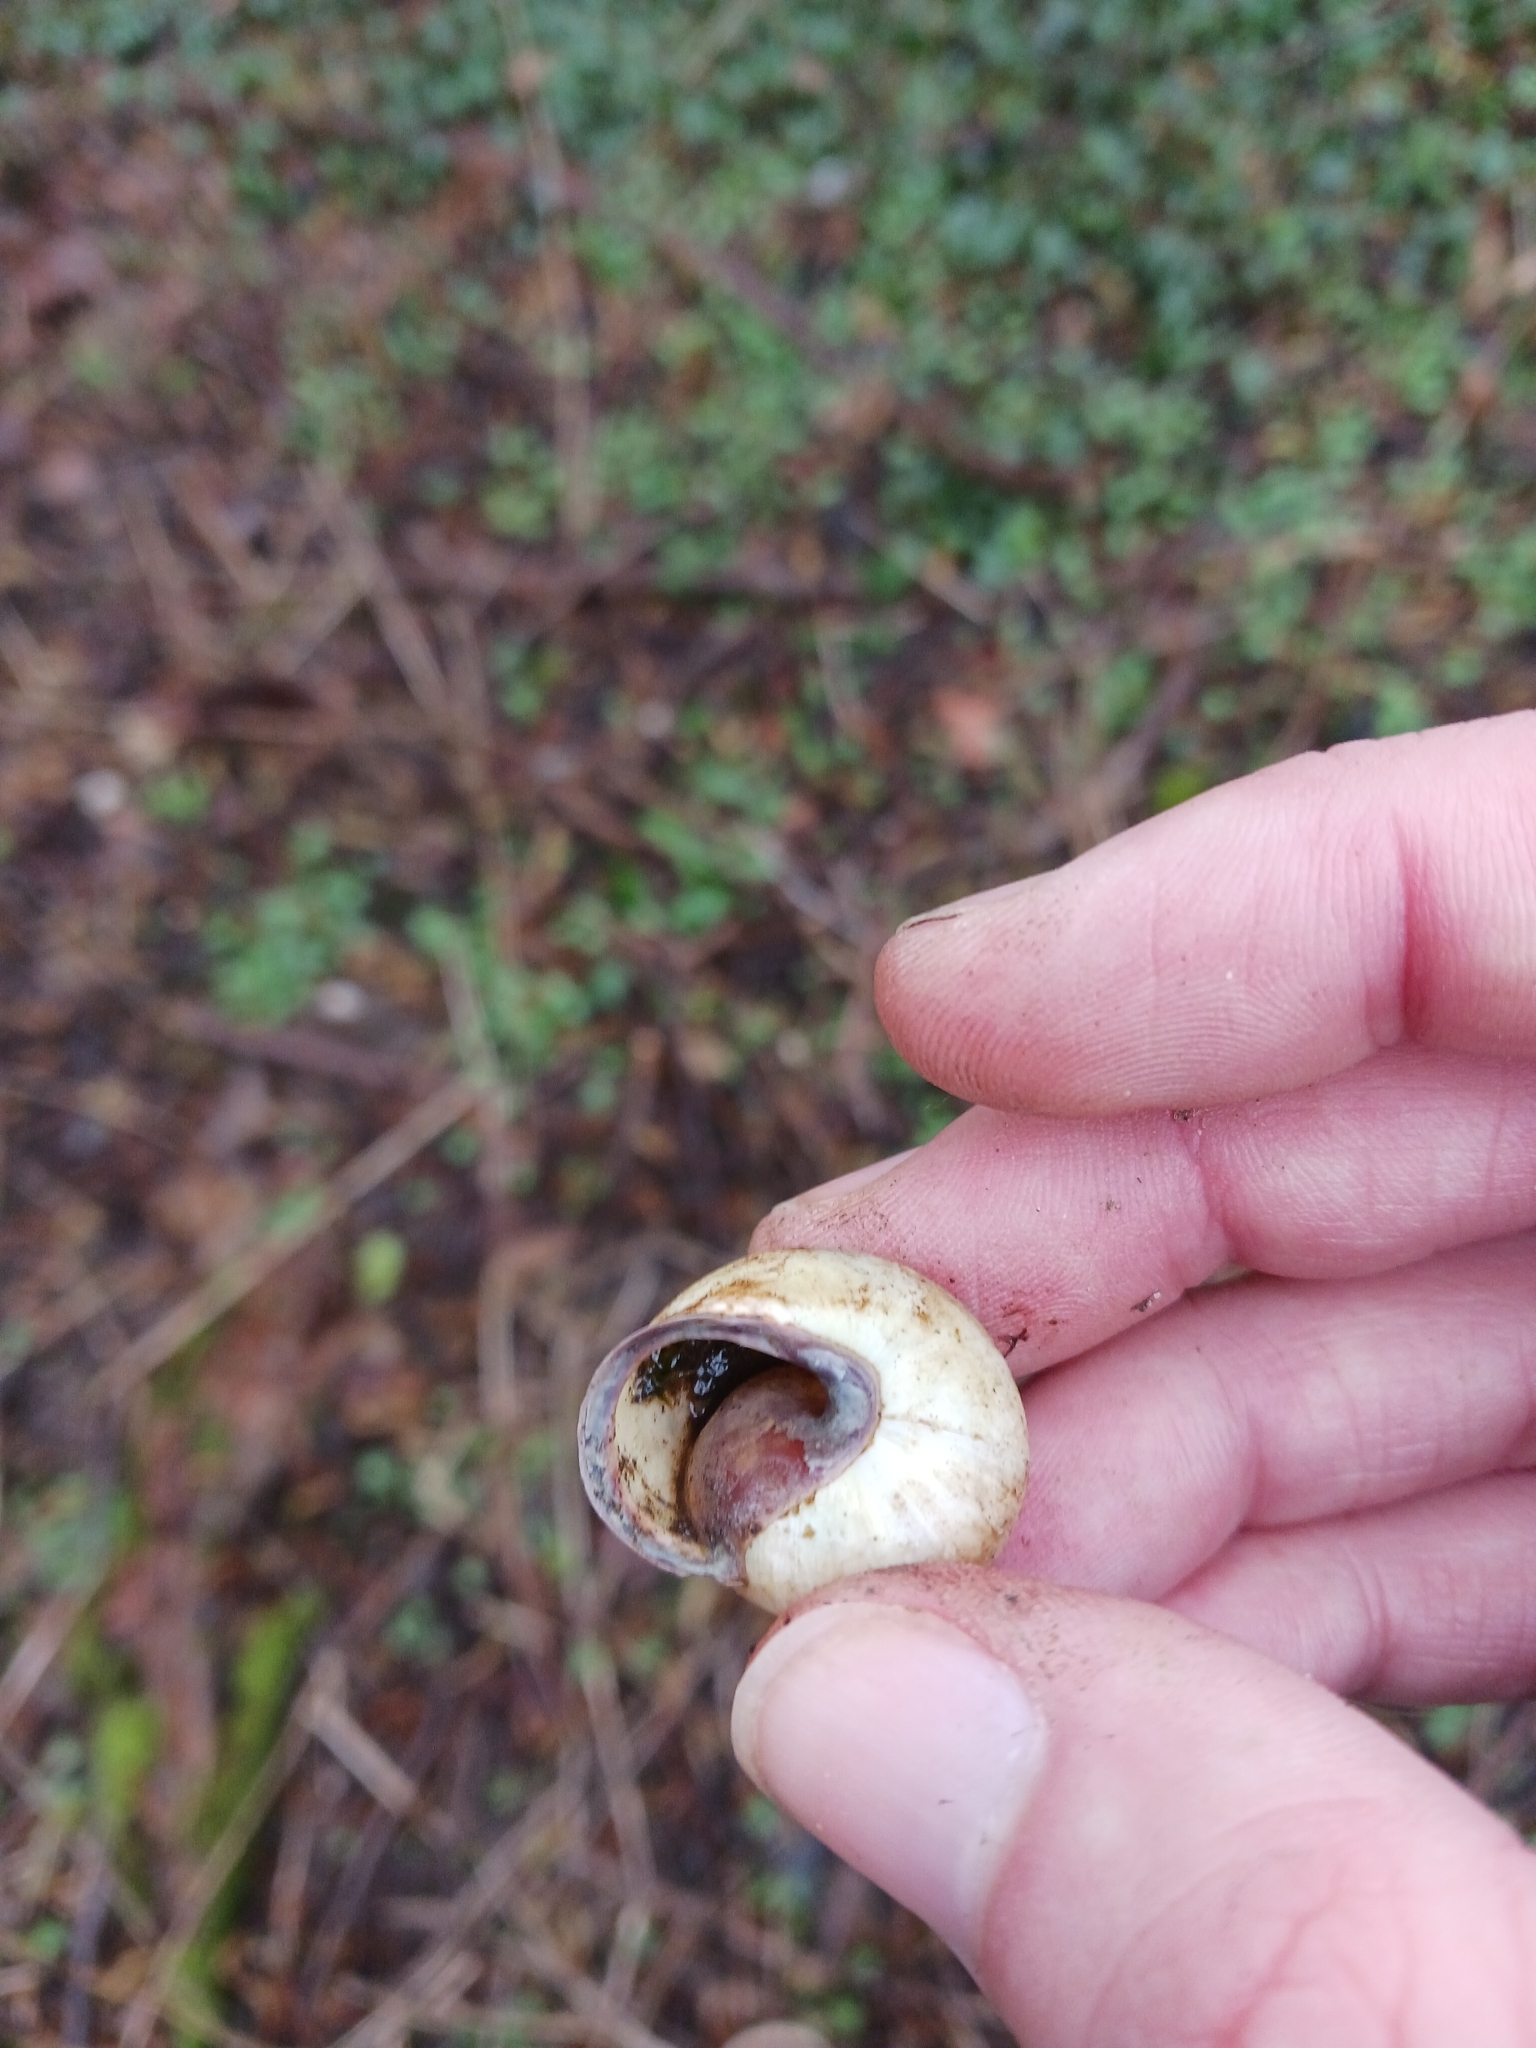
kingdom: Animalia
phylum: Mollusca
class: Gastropoda
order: Stylommatophora
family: Helicidae
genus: Cepaea
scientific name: Cepaea nemoralis
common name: Grovesnail
